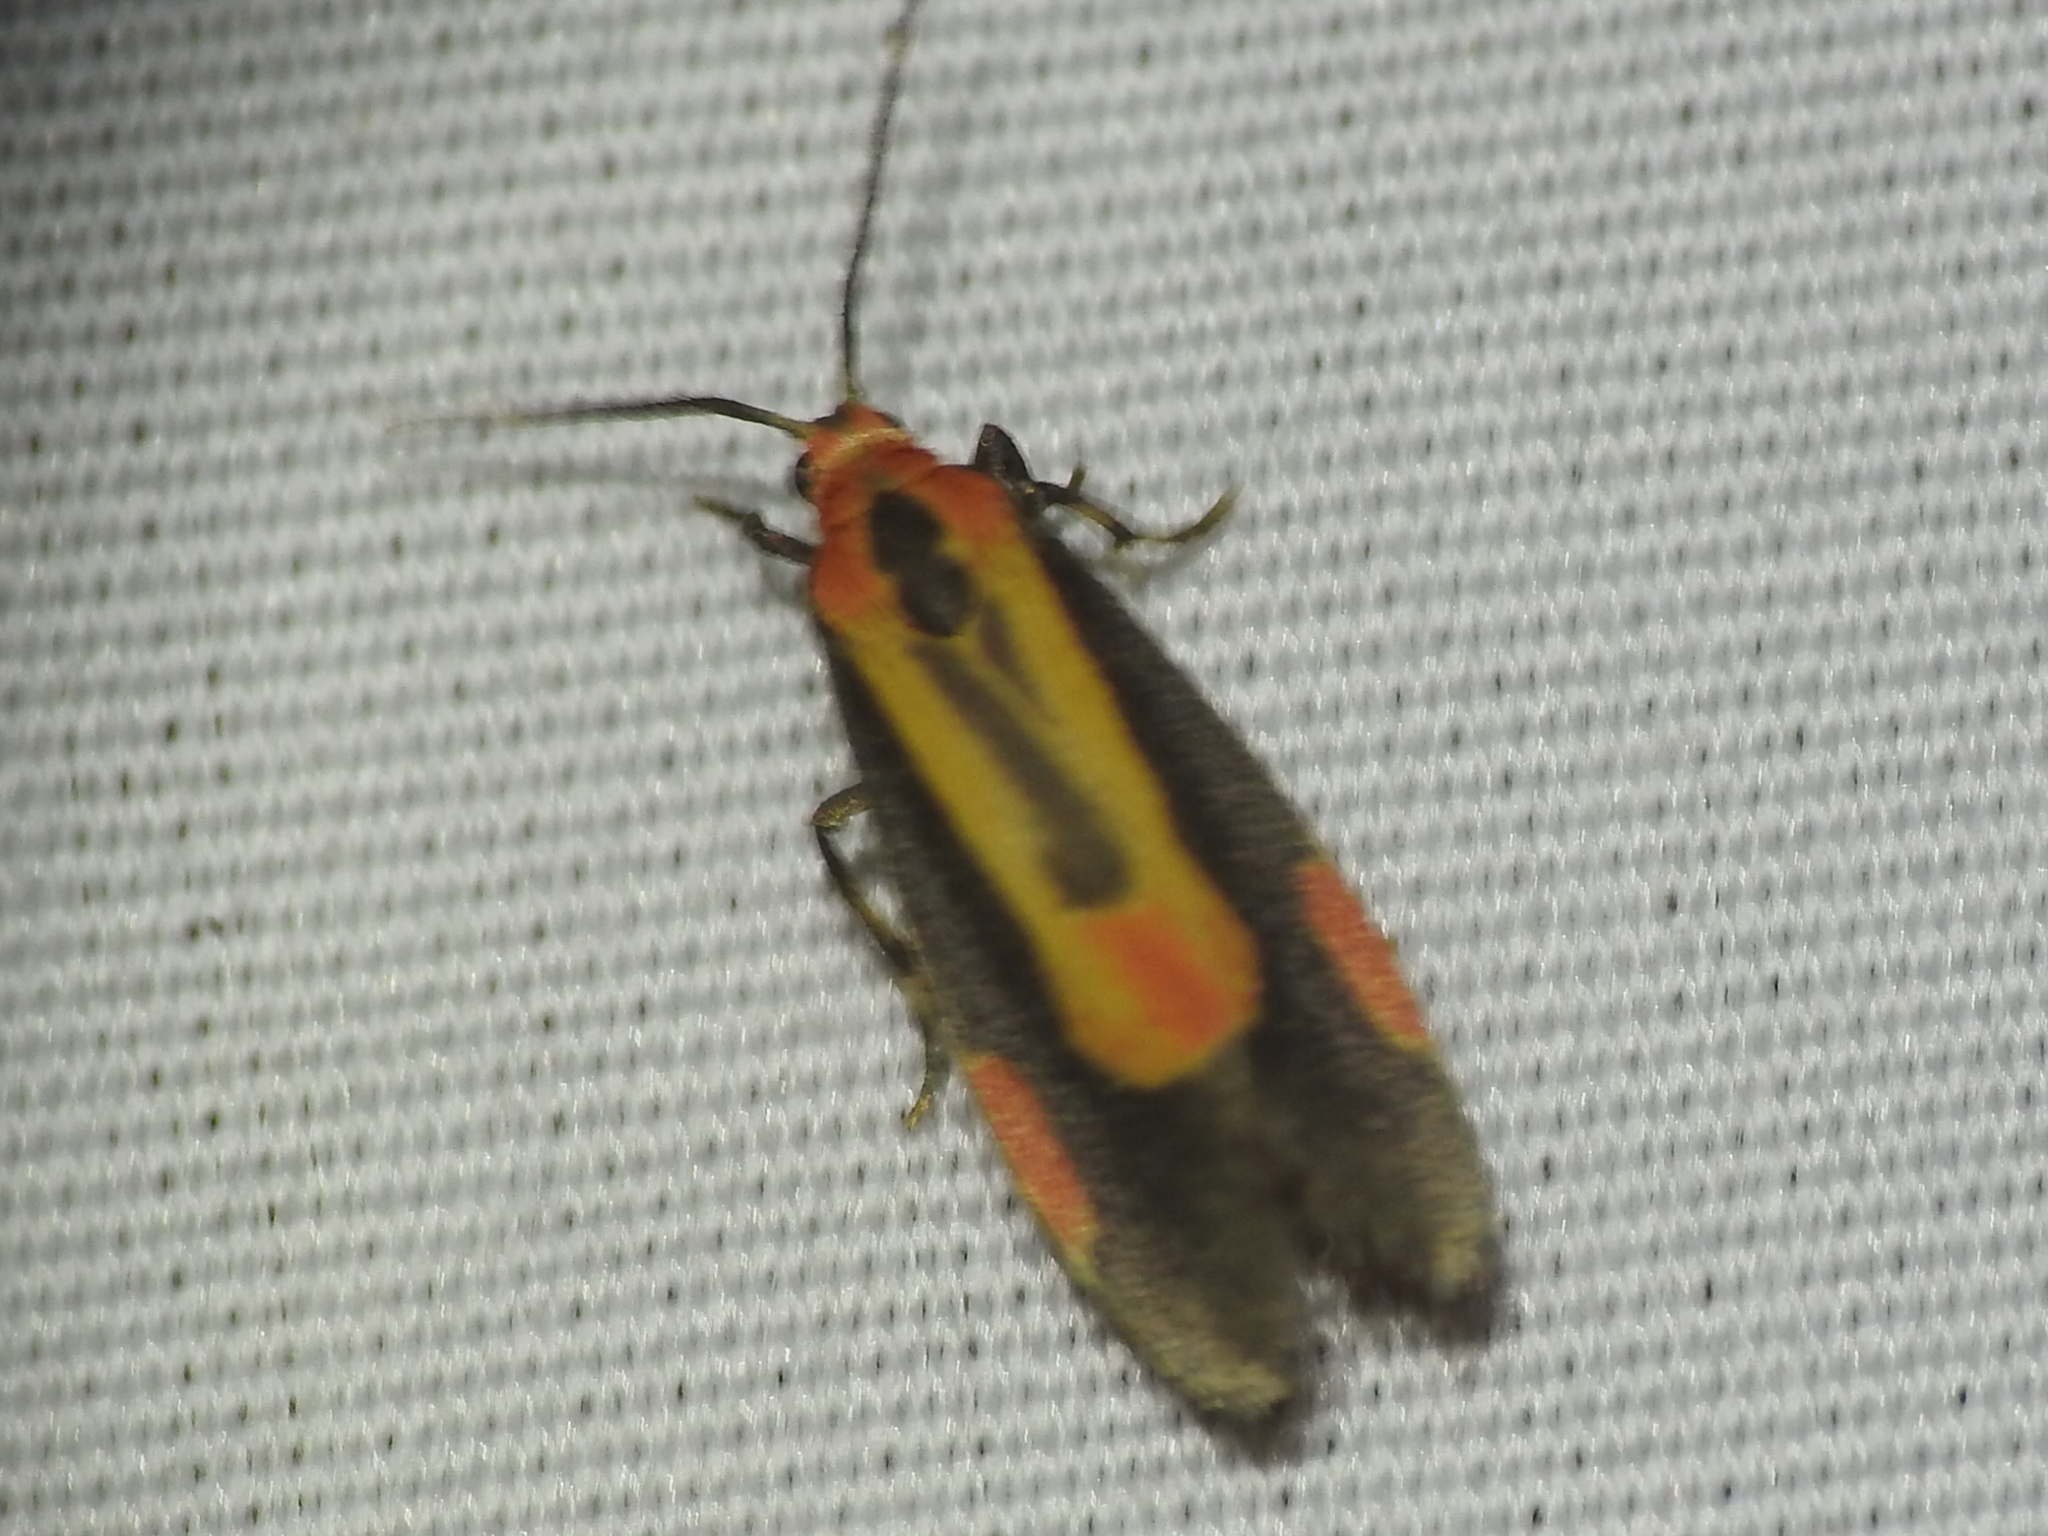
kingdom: Animalia
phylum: Arthropoda
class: Insecta
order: Lepidoptera
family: Erebidae
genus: Cisthene
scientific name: Cisthene packardii
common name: Packard's lichen moth
